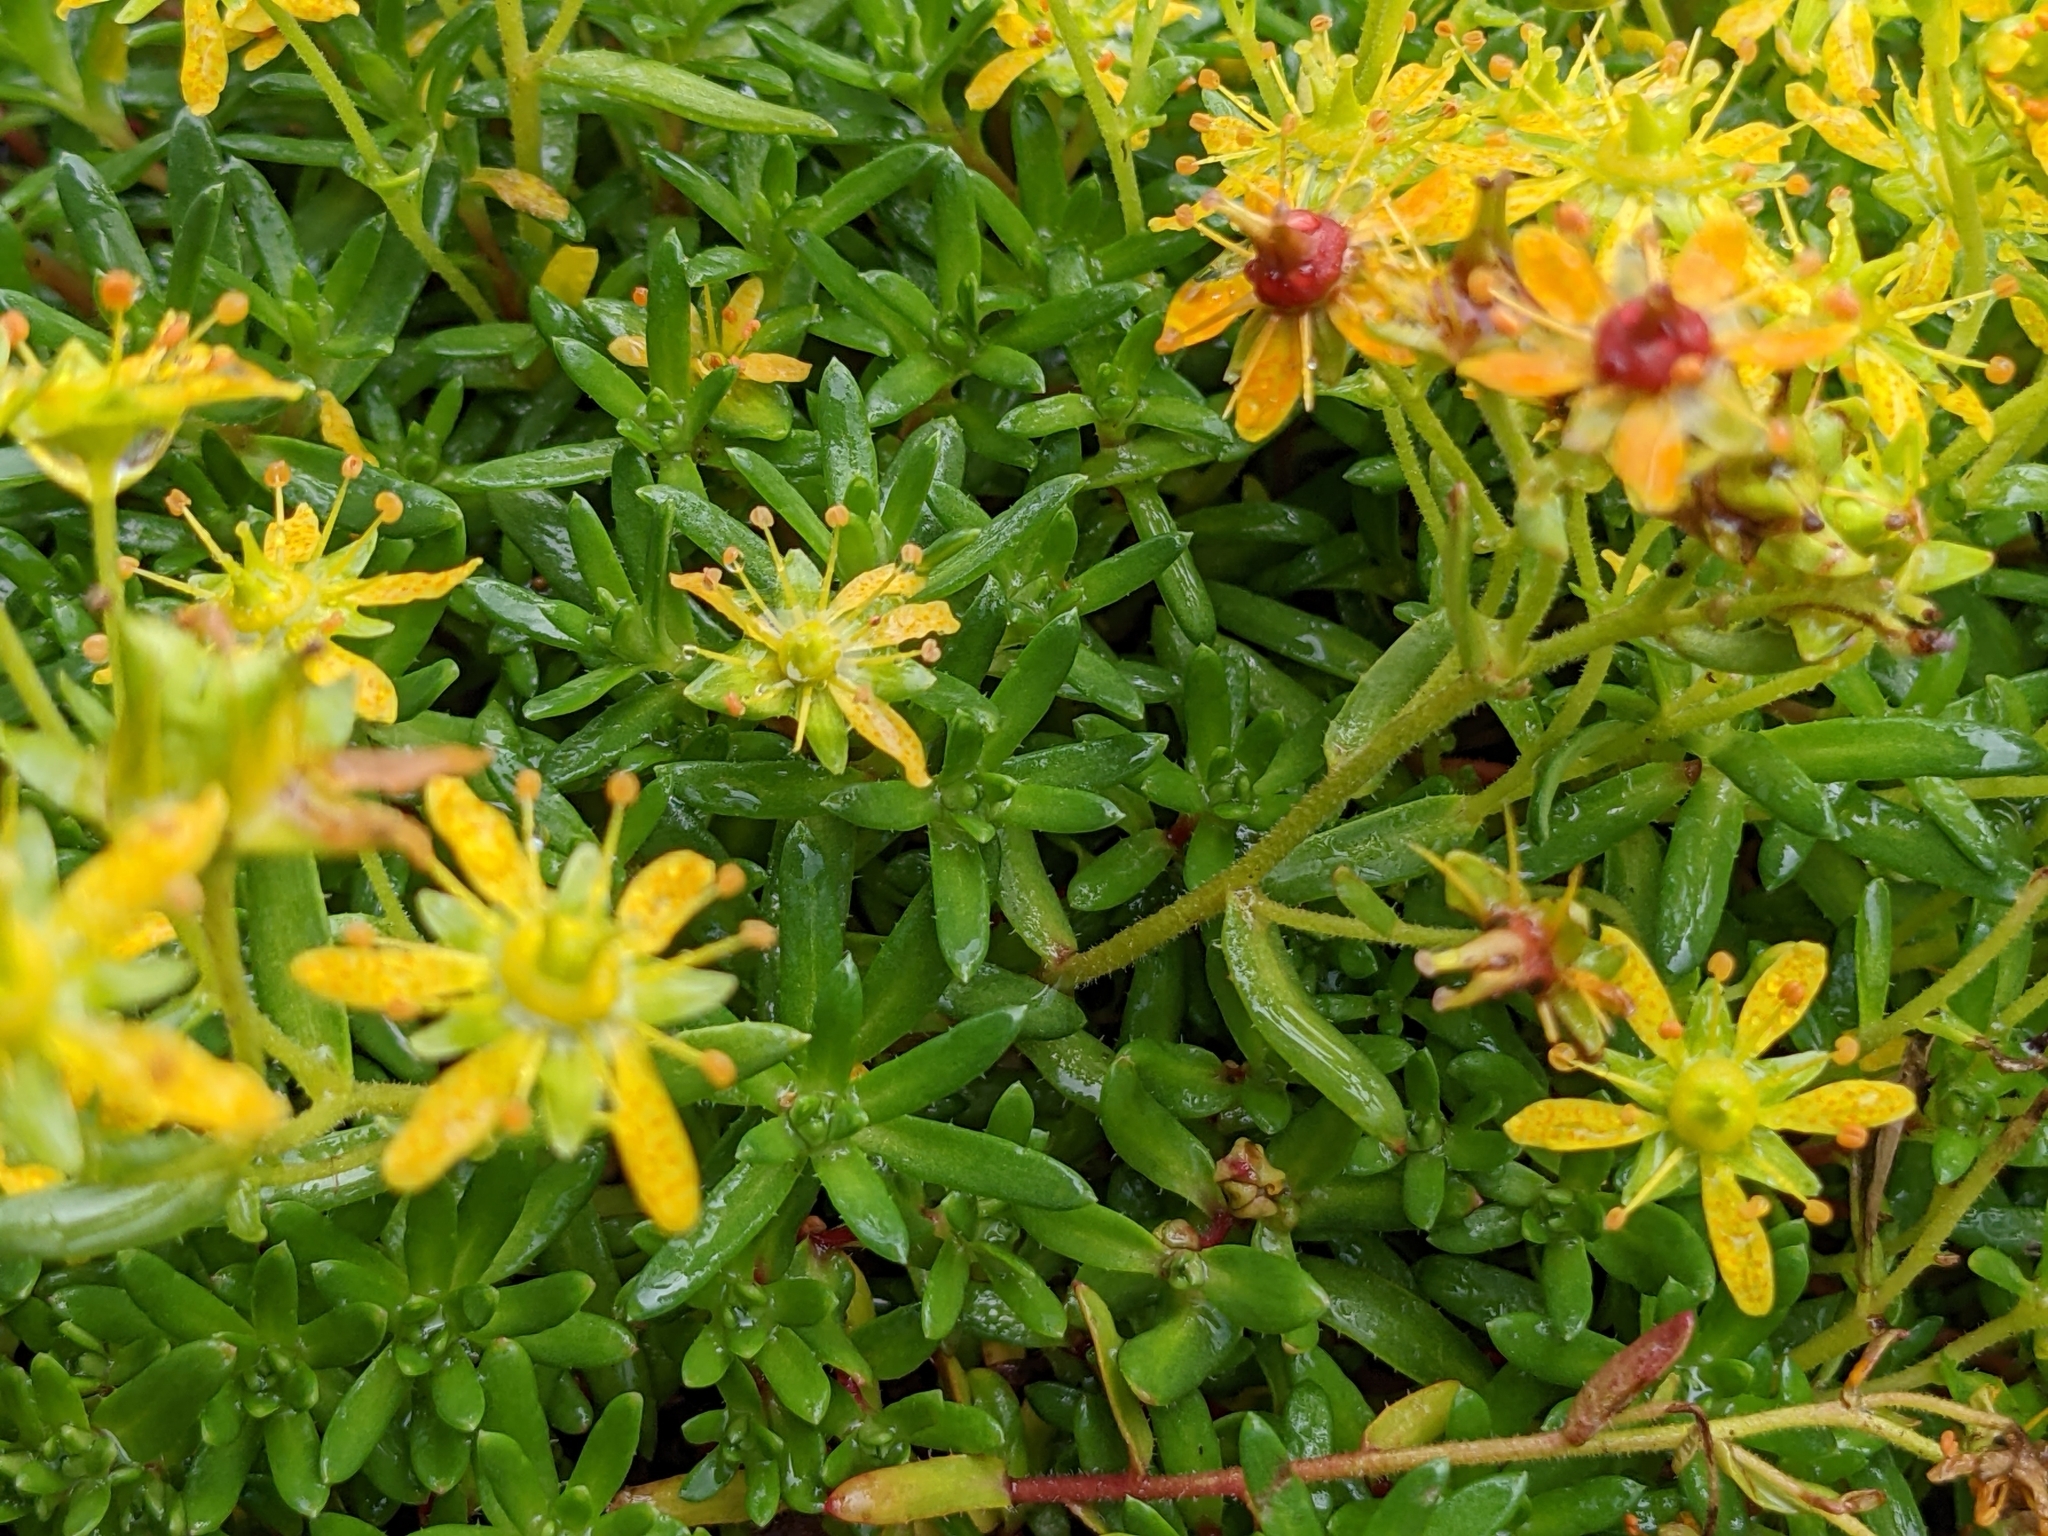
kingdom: Plantae
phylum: Tracheophyta
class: Magnoliopsida
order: Saxifragales
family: Saxifragaceae
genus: Saxifraga
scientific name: Saxifraga aizoides
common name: Yellow mountain saxifrage
